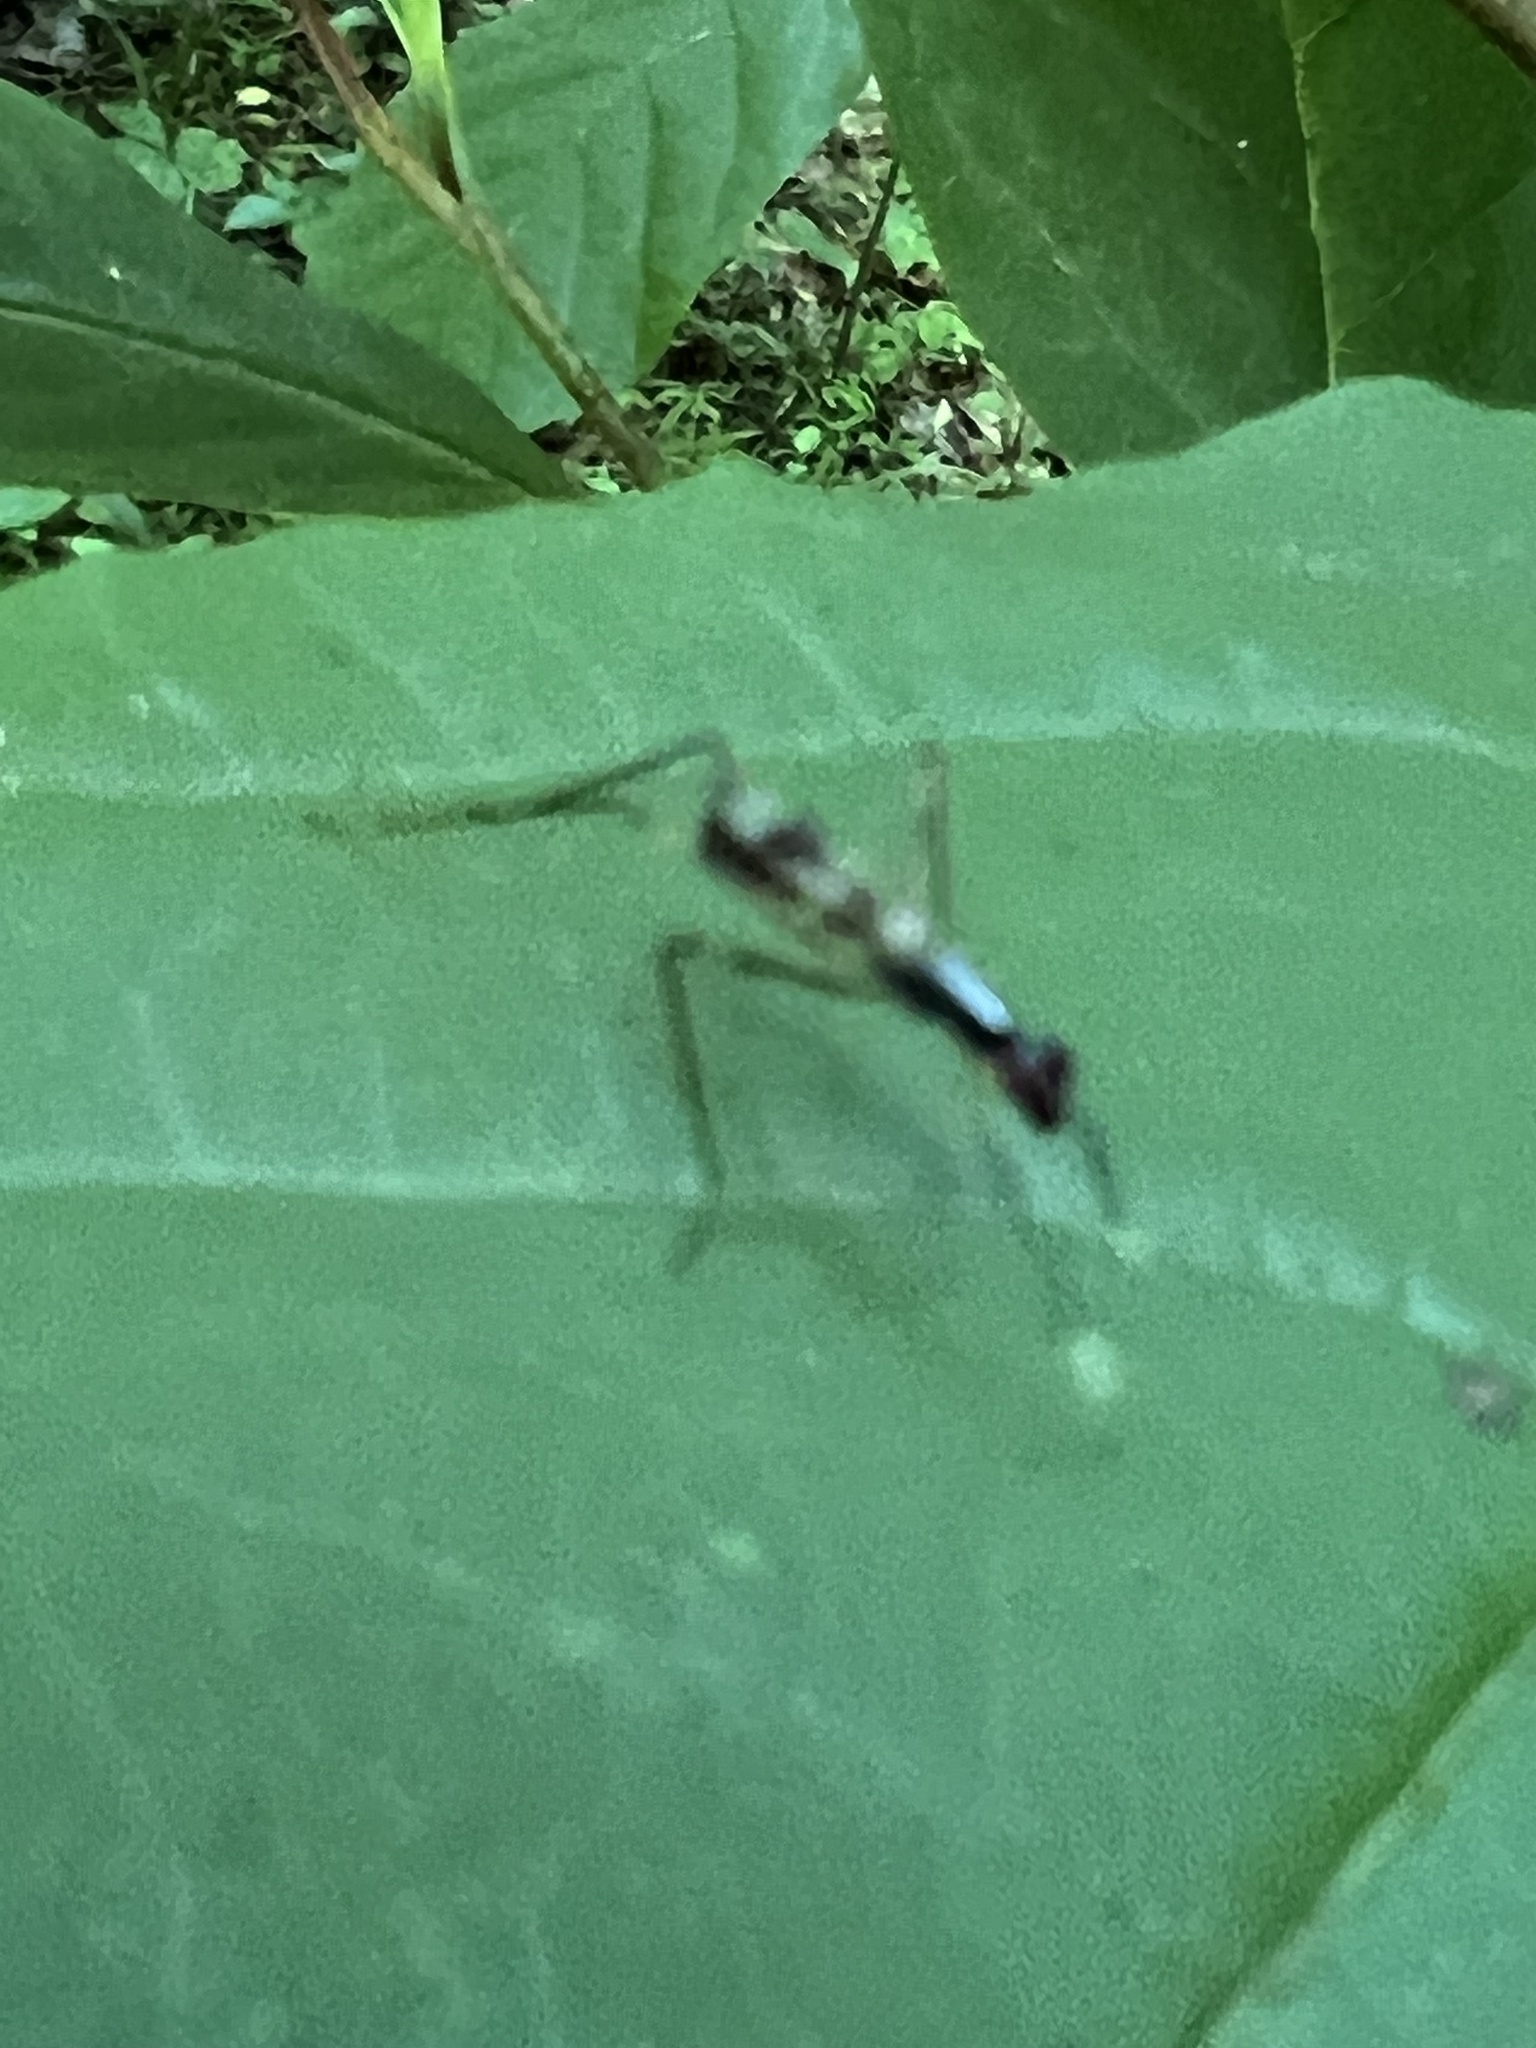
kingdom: Animalia
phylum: Arthropoda
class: Insecta
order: Diptera
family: Micropezidae
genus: Rainieria
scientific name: Rainieria antennaepes
